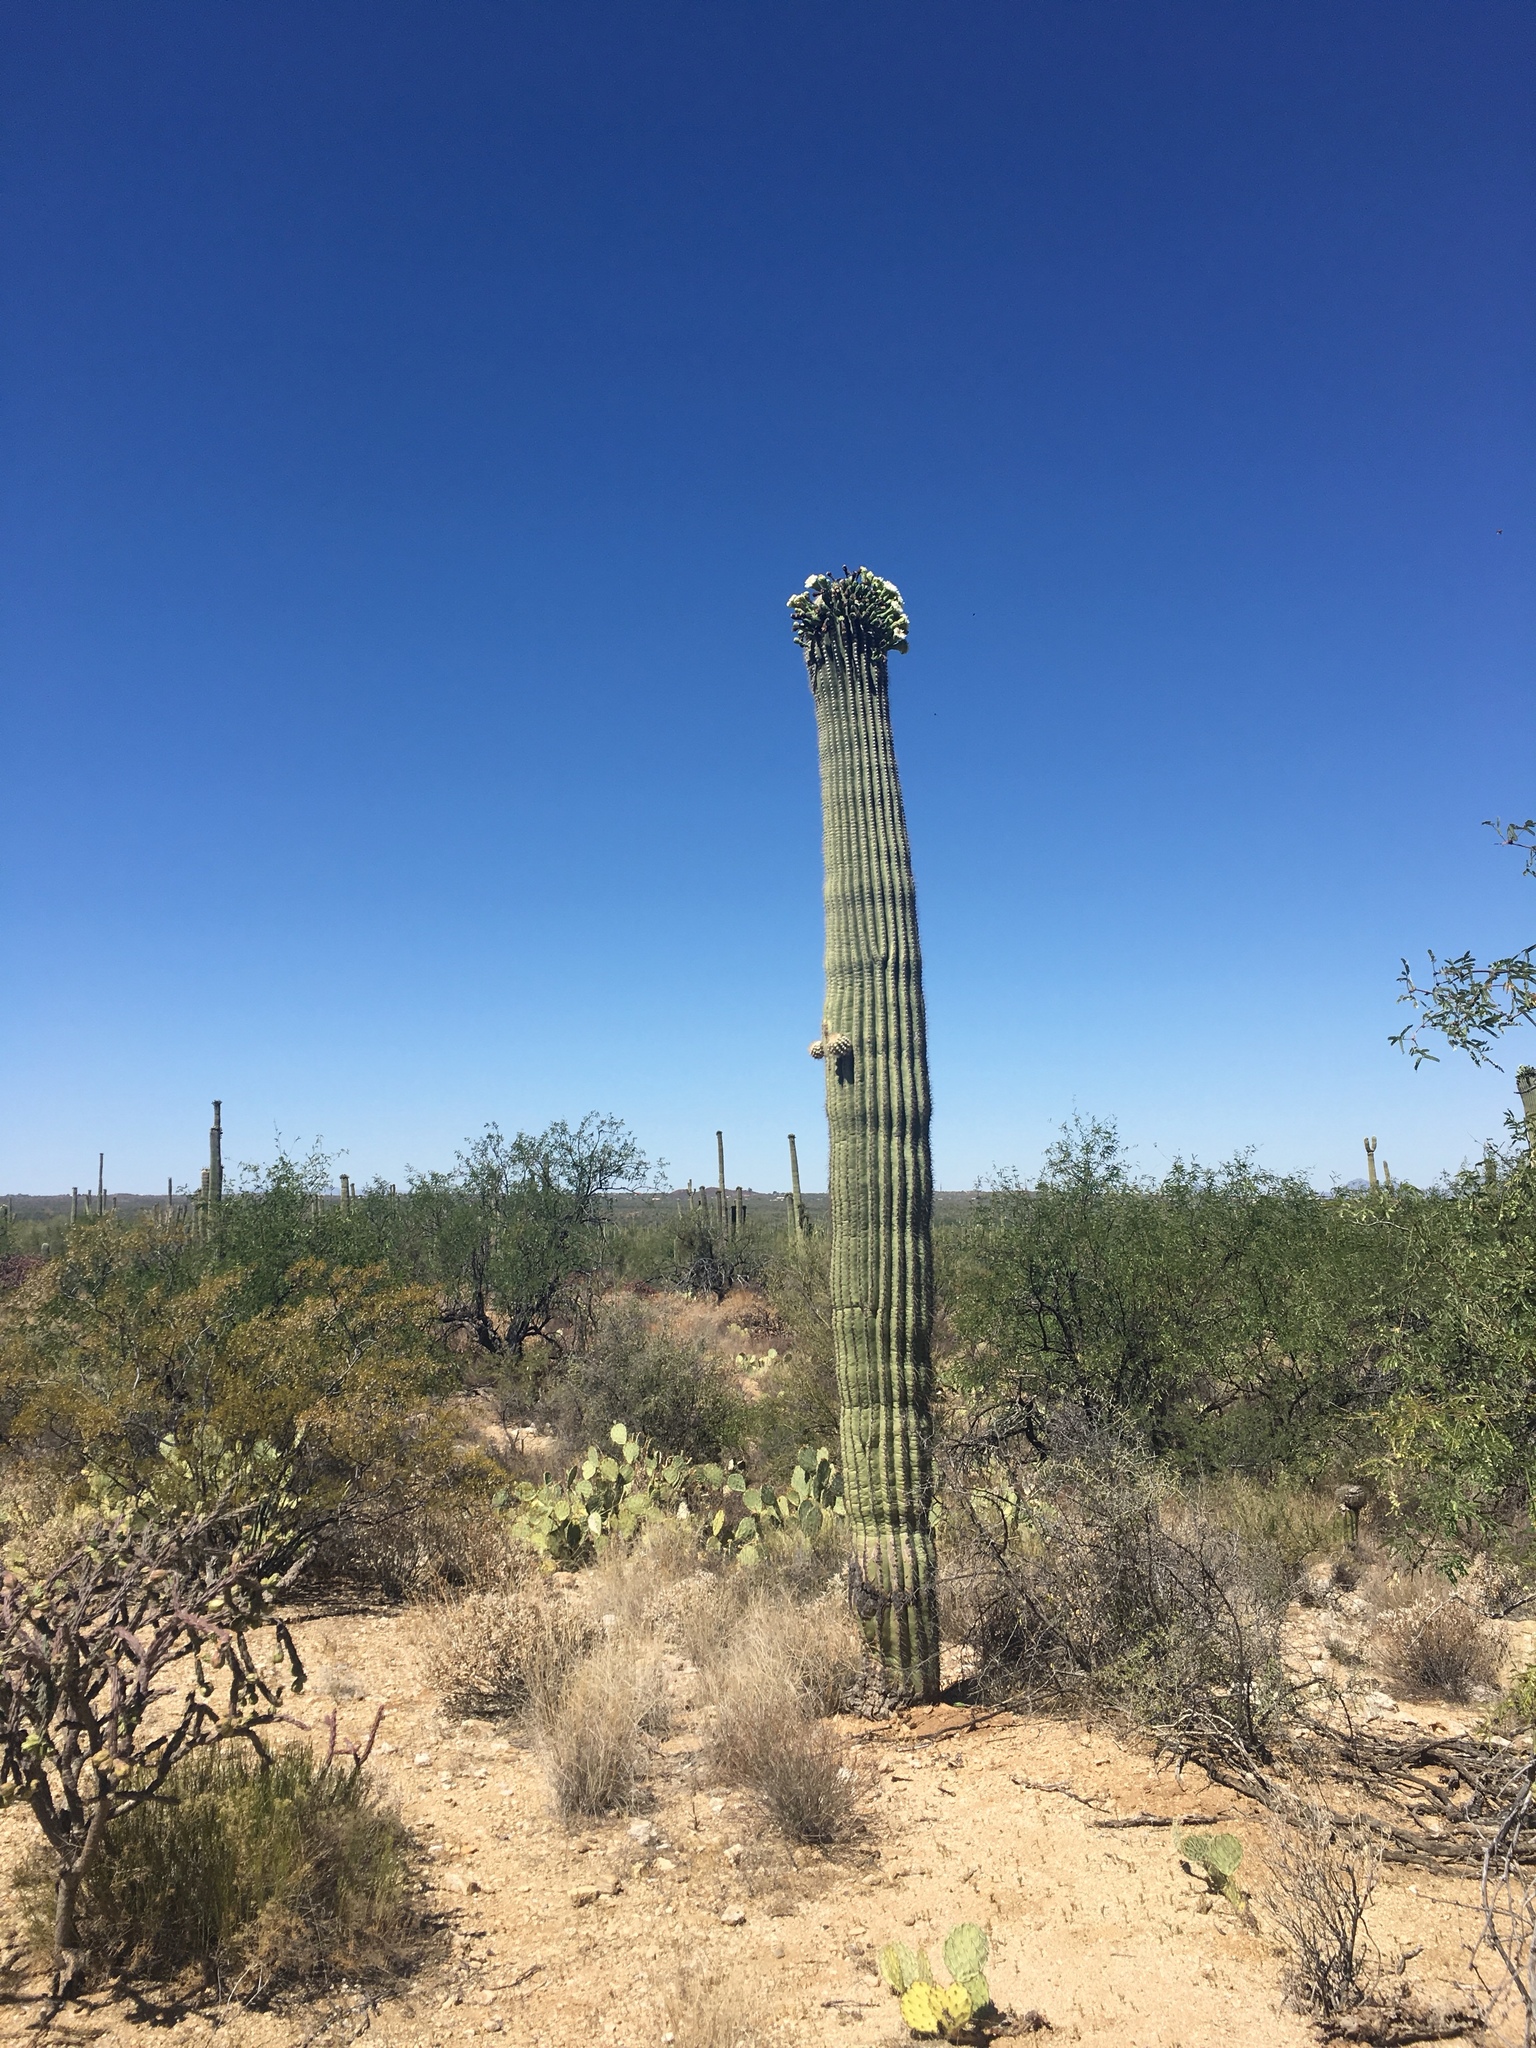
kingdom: Plantae
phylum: Tracheophyta
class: Magnoliopsida
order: Caryophyllales
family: Cactaceae
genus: Carnegiea
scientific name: Carnegiea gigantea
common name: Saguaro
